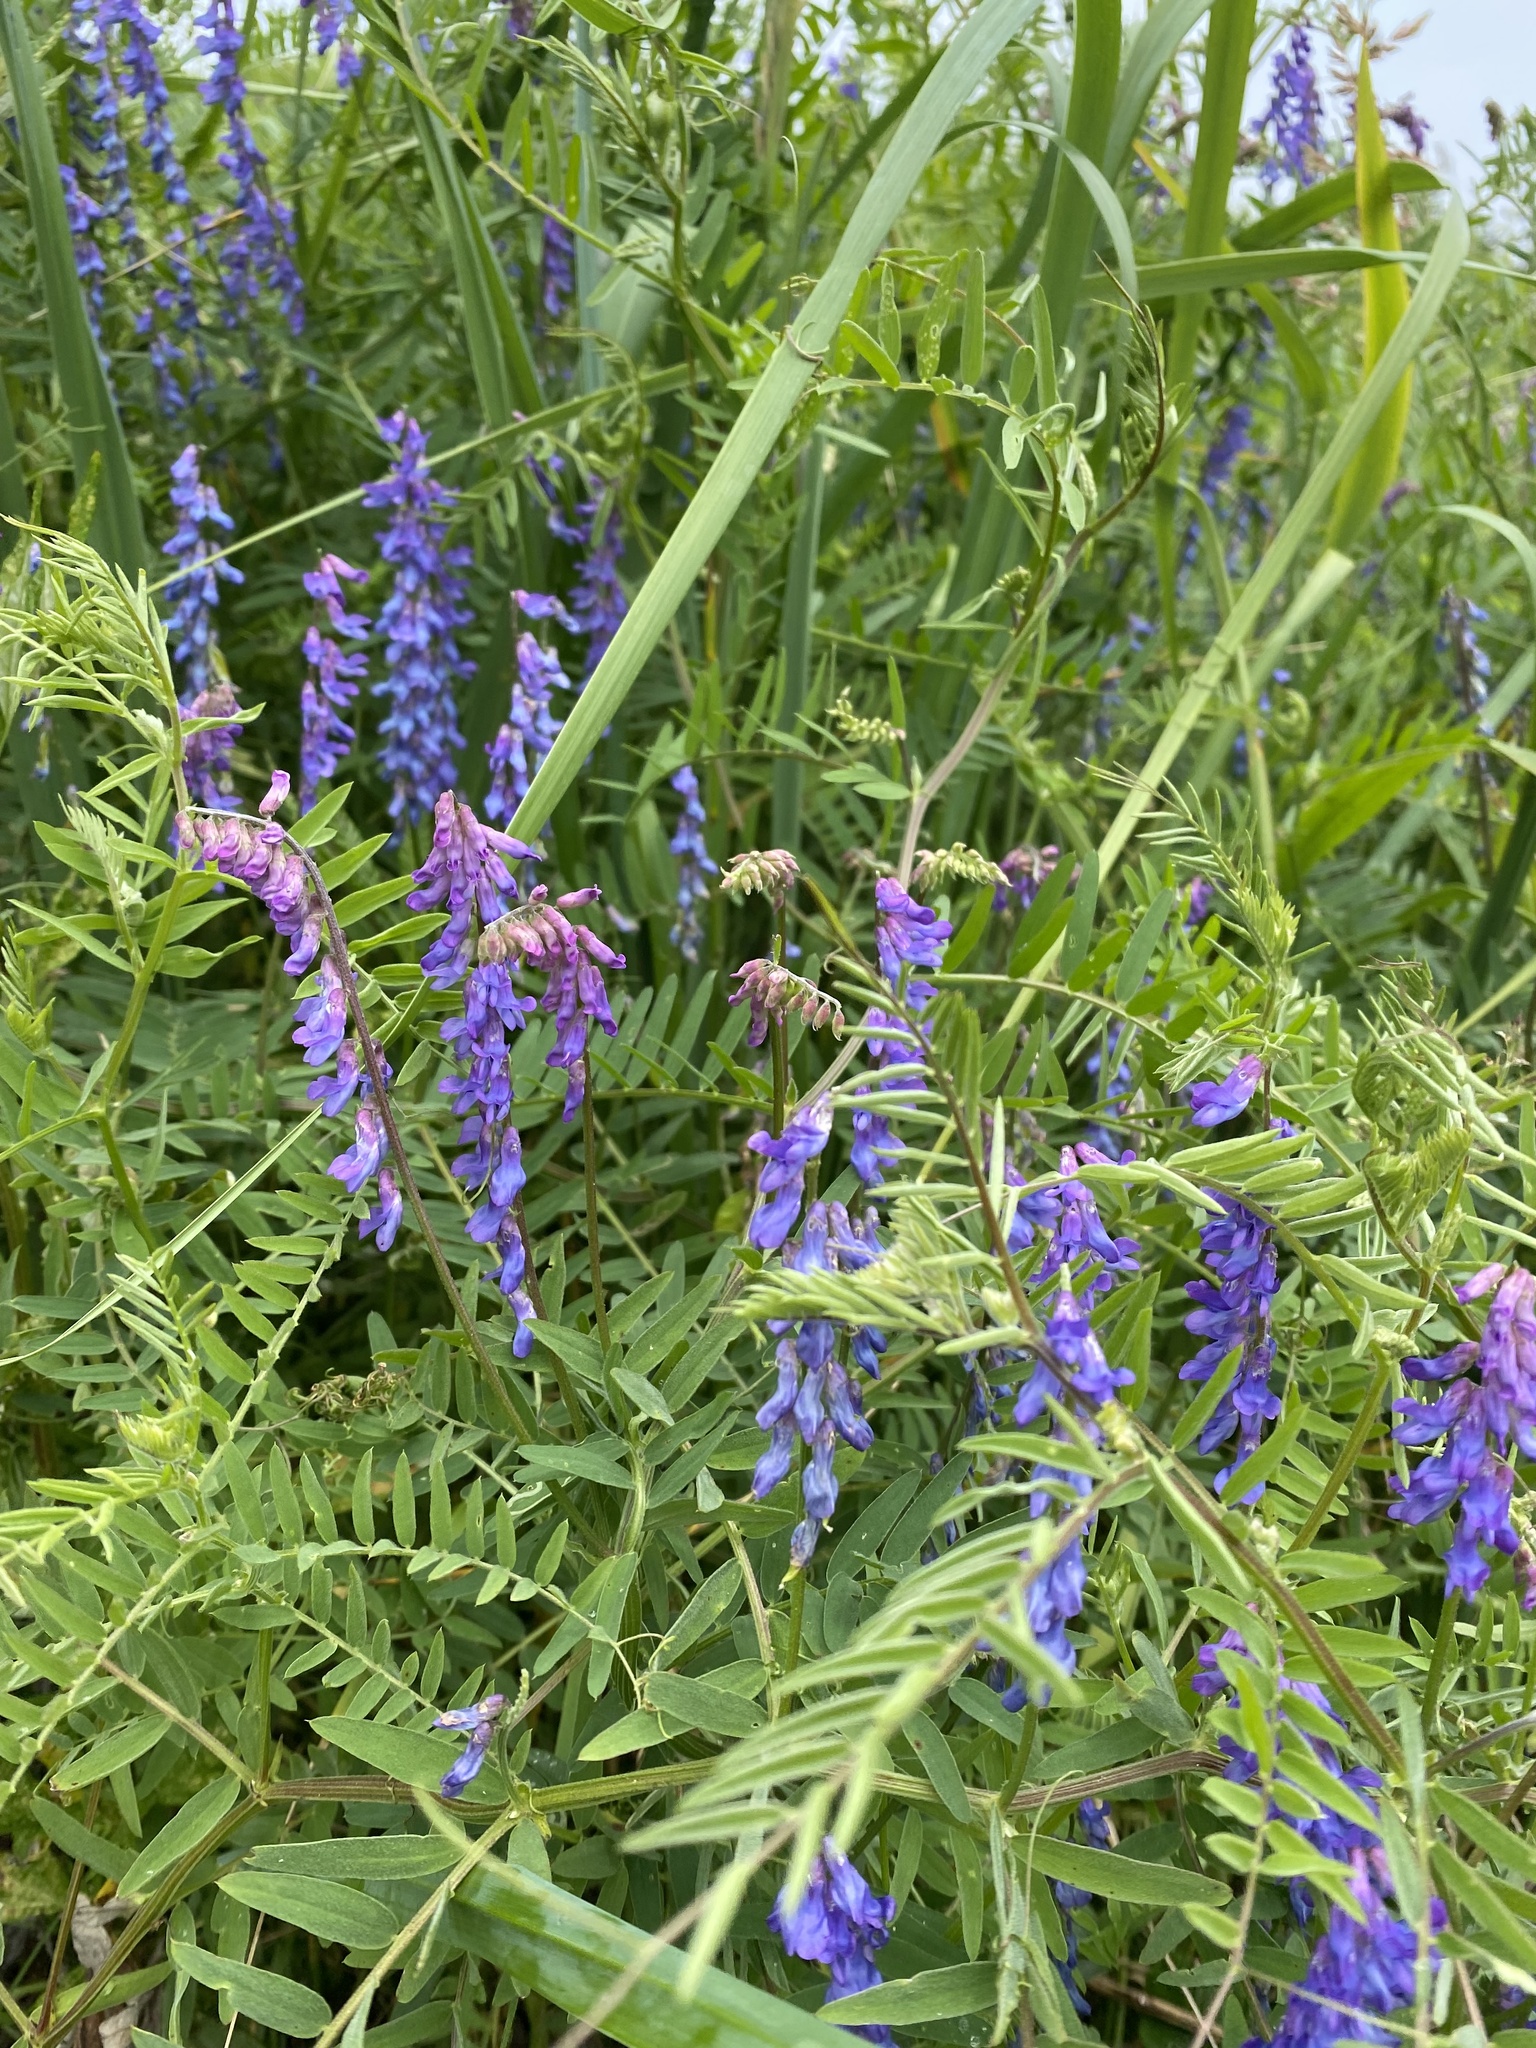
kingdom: Plantae
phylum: Tracheophyta
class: Magnoliopsida
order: Fabales
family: Fabaceae
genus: Vicia
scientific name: Vicia cracca
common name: Bird vetch
